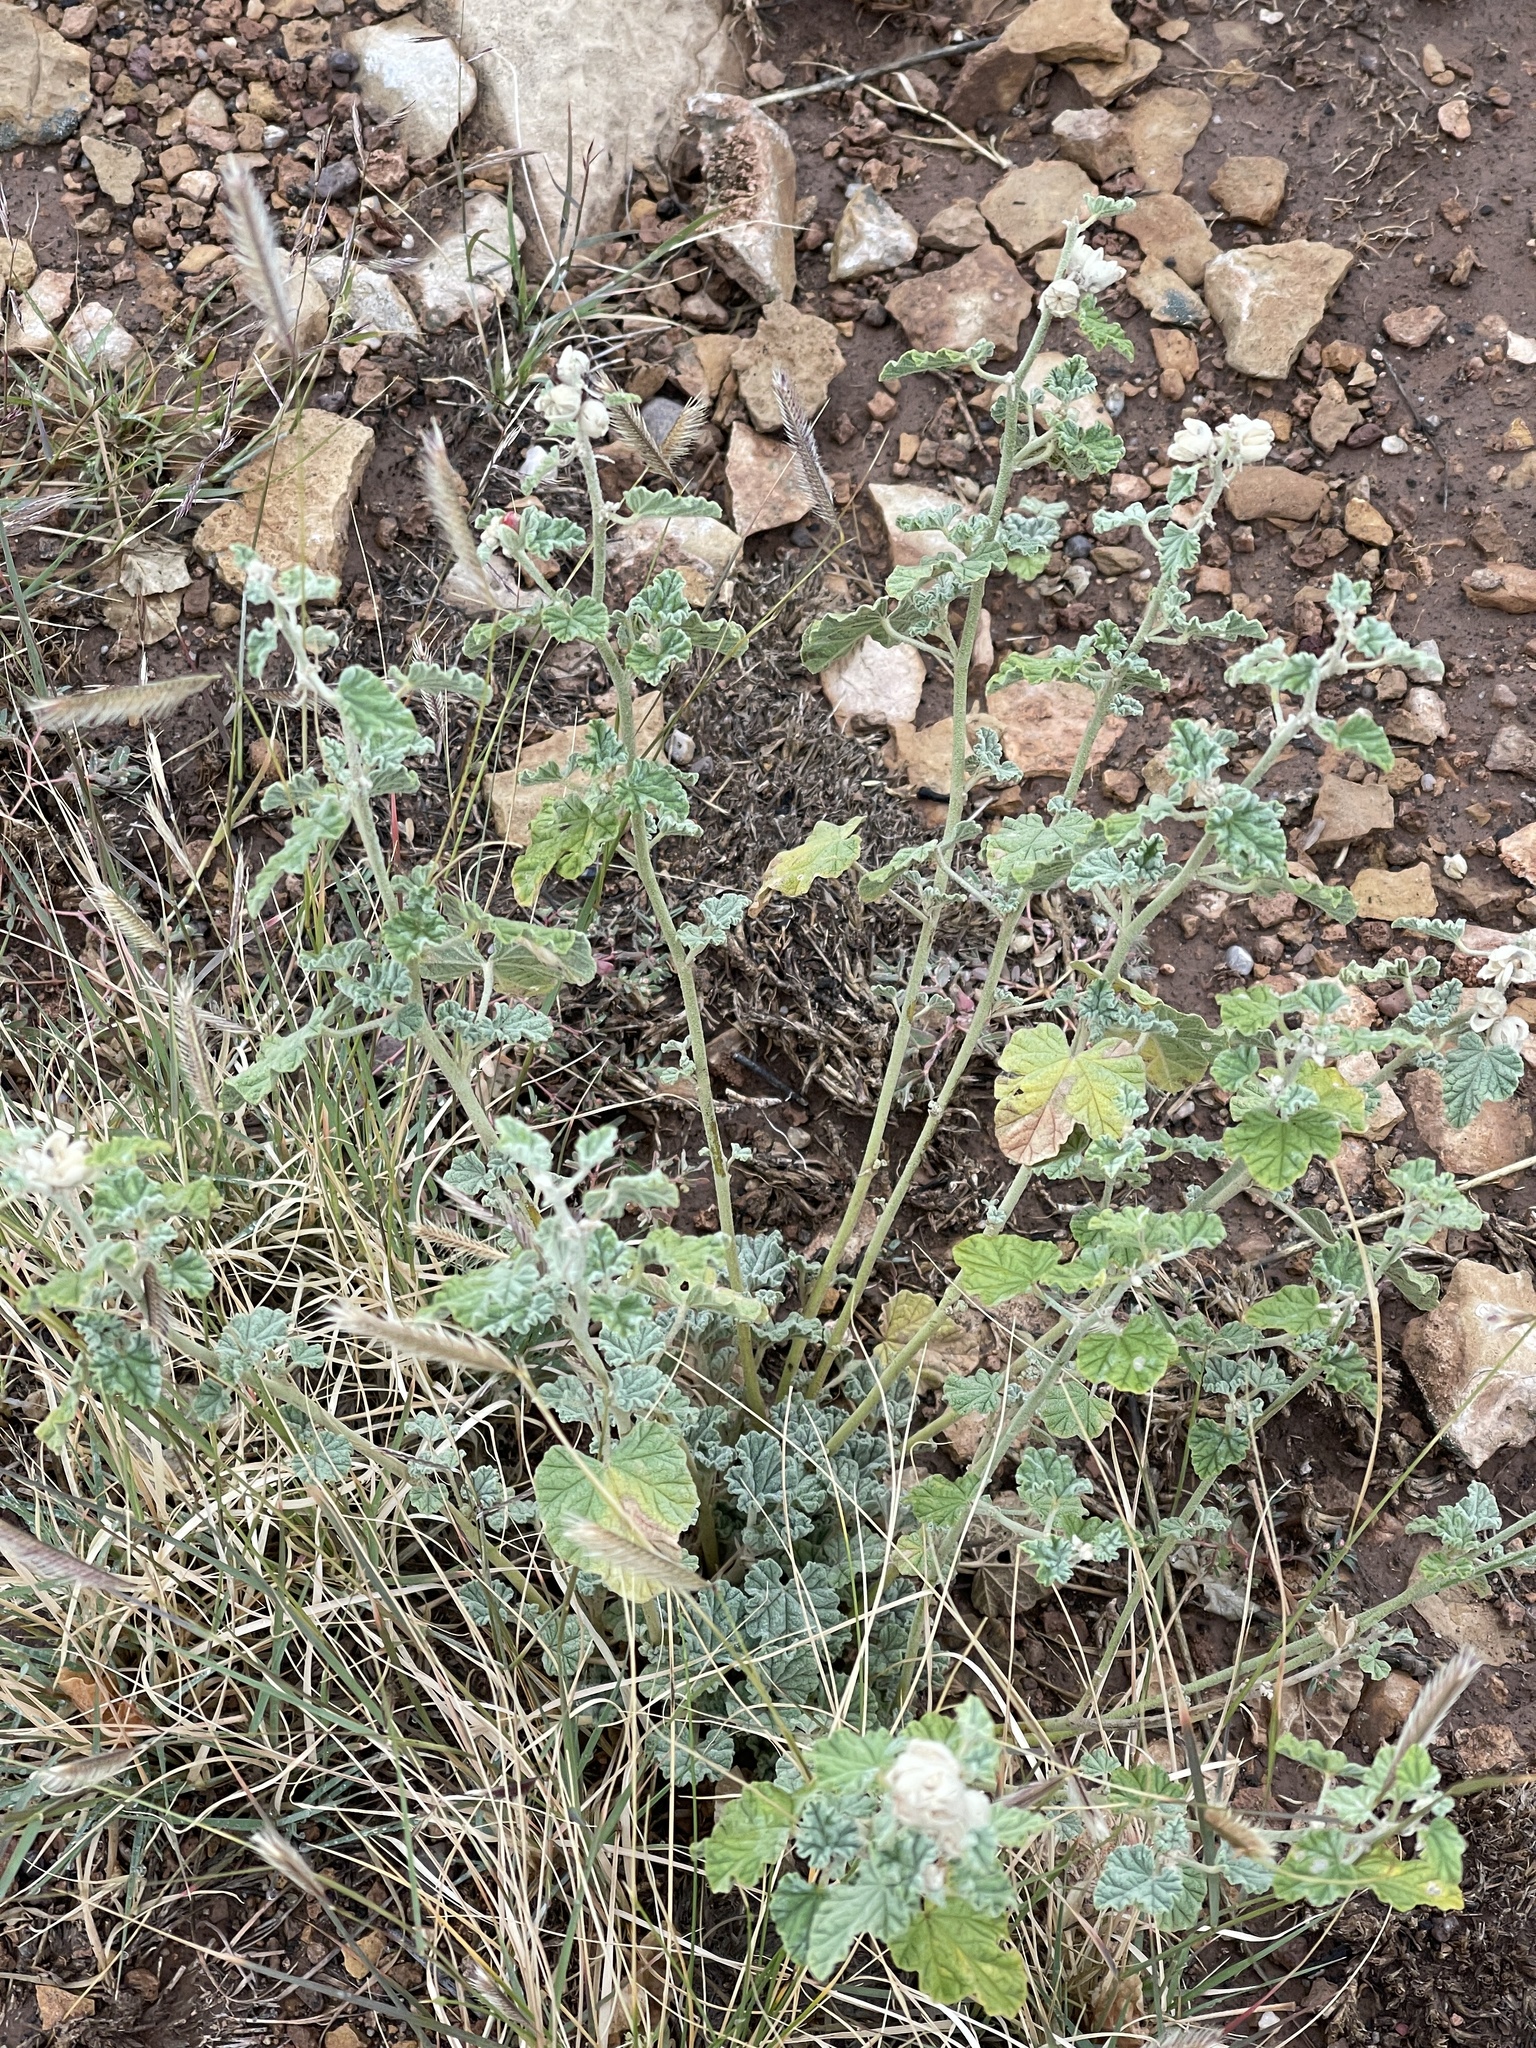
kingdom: Plantae
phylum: Tracheophyta
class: Magnoliopsida
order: Malvales
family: Malvaceae
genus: Sphaeralcea
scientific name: Sphaeralcea ambigua
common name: Apricot globe-mallow
